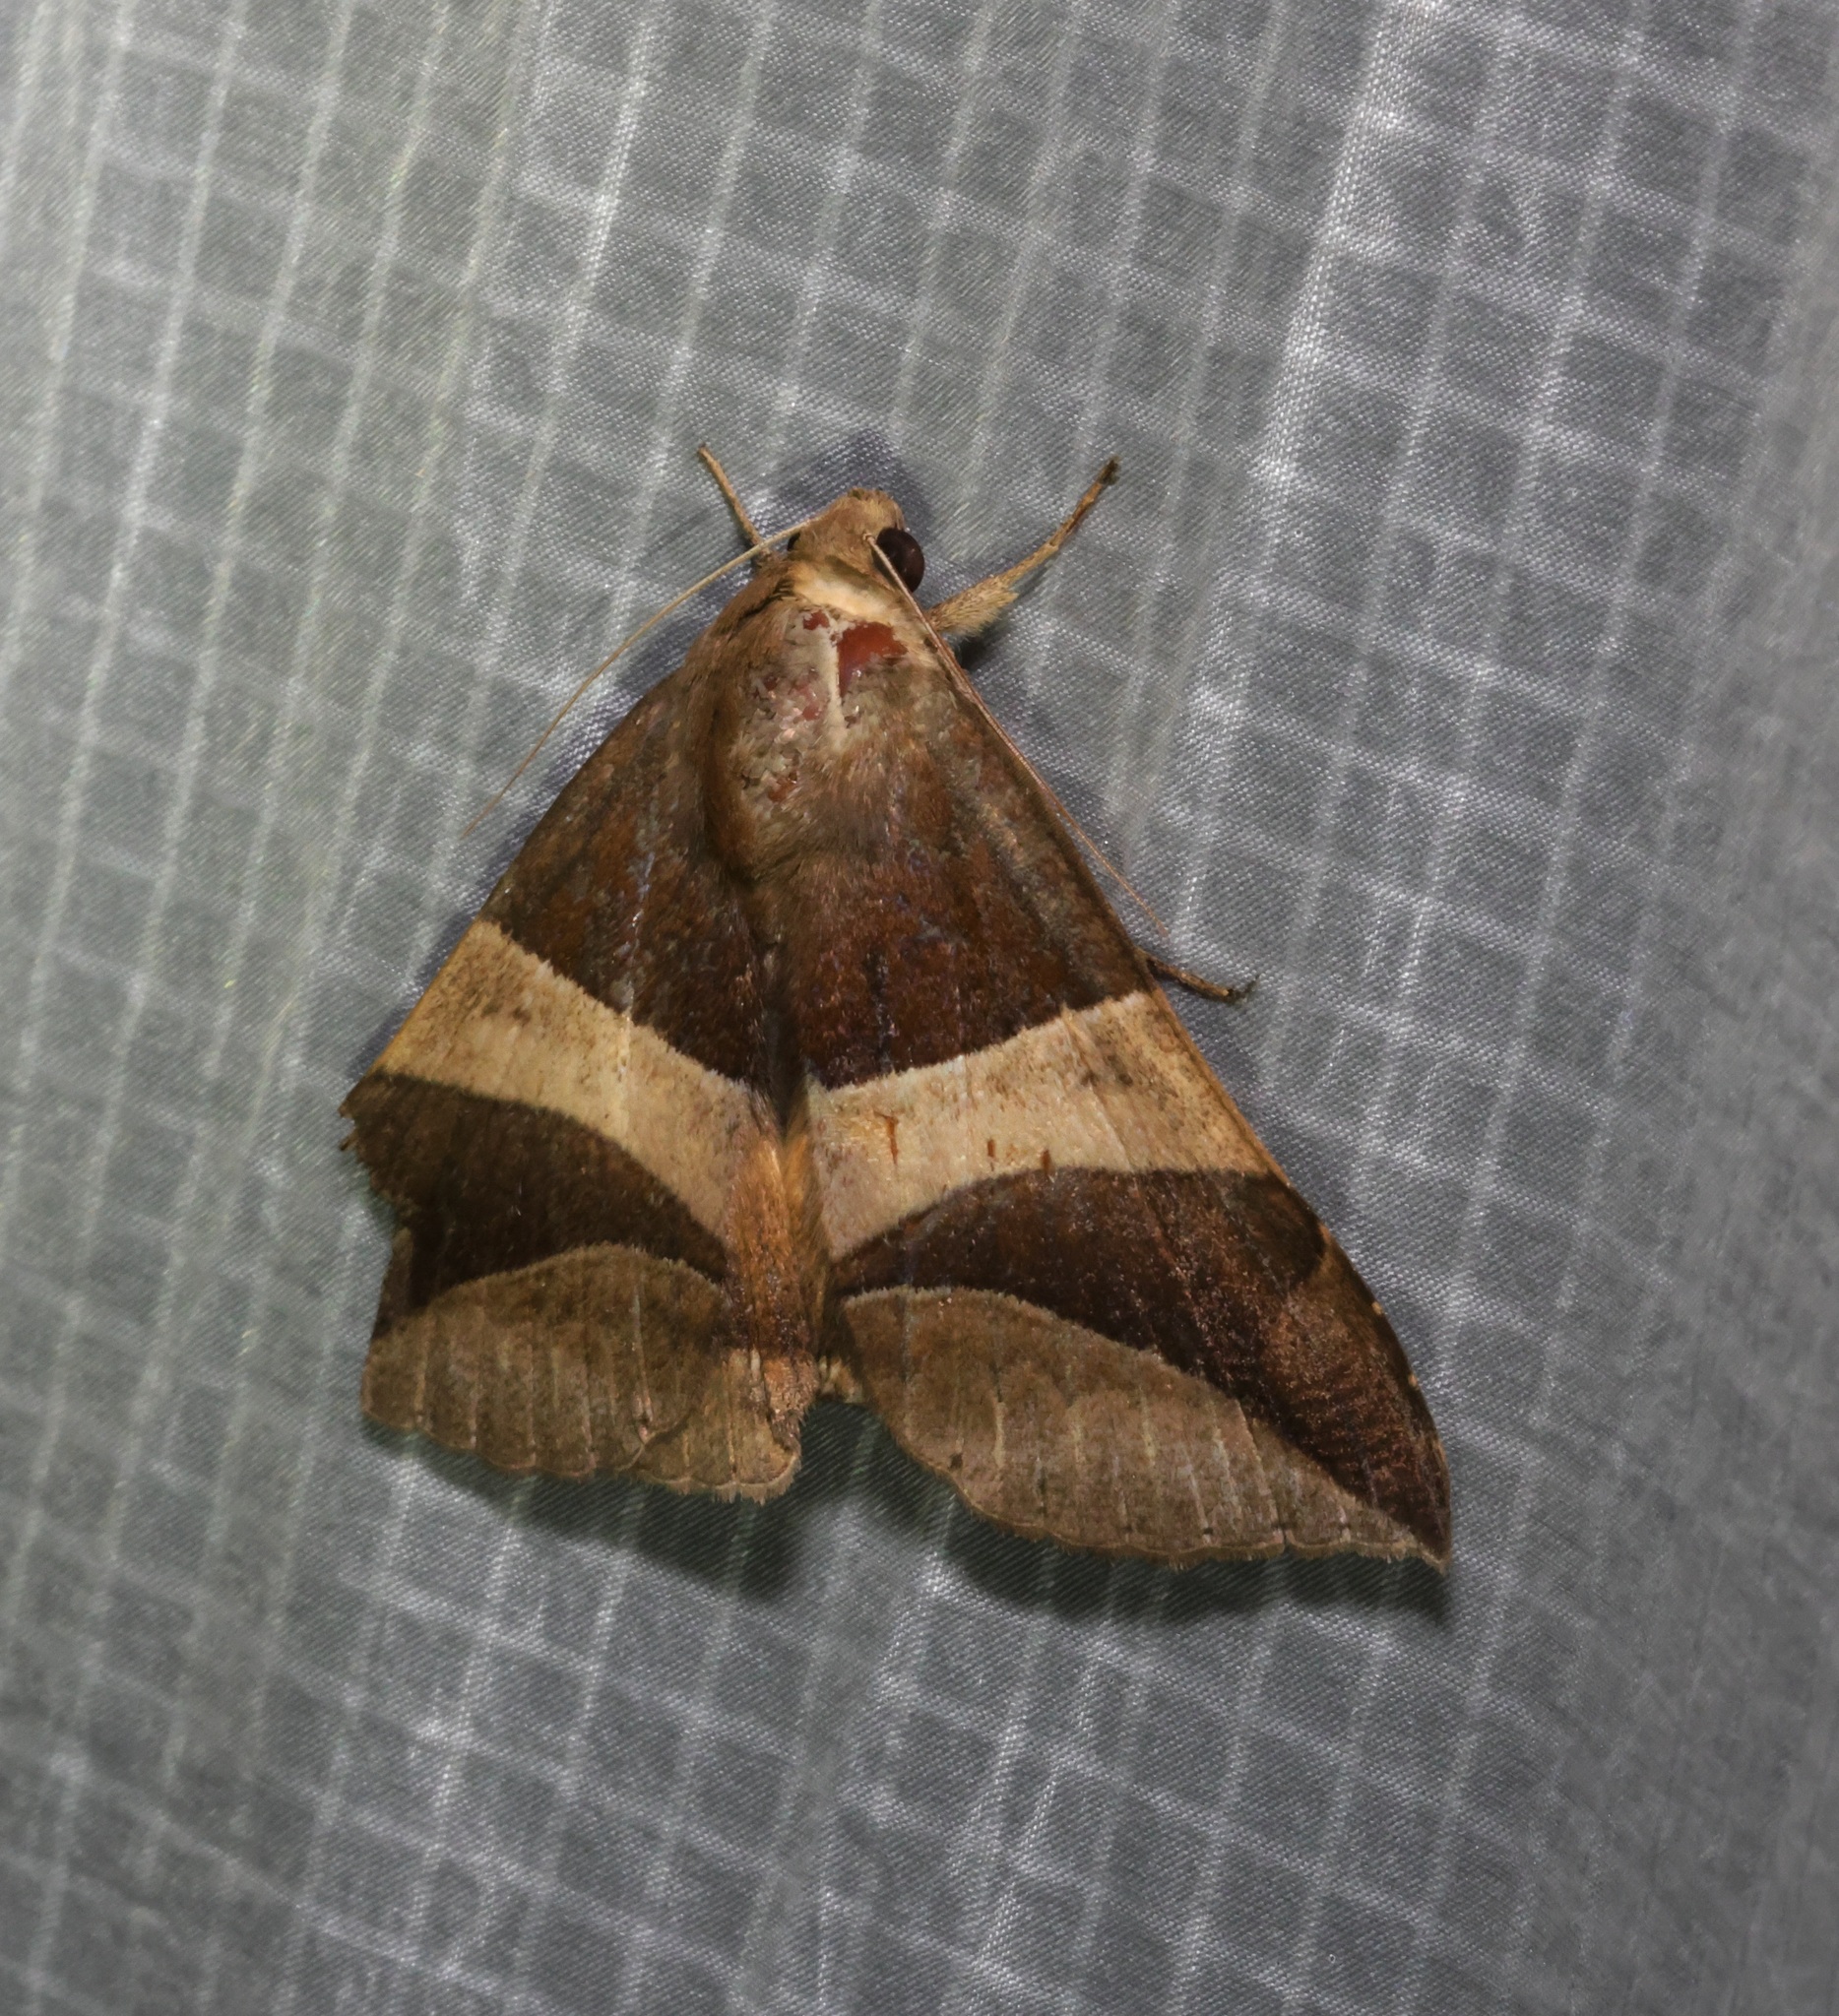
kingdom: Animalia
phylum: Arthropoda
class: Insecta
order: Lepidoptera
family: Erebidae
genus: Bastilla
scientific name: Bastilla fulvotaenia
